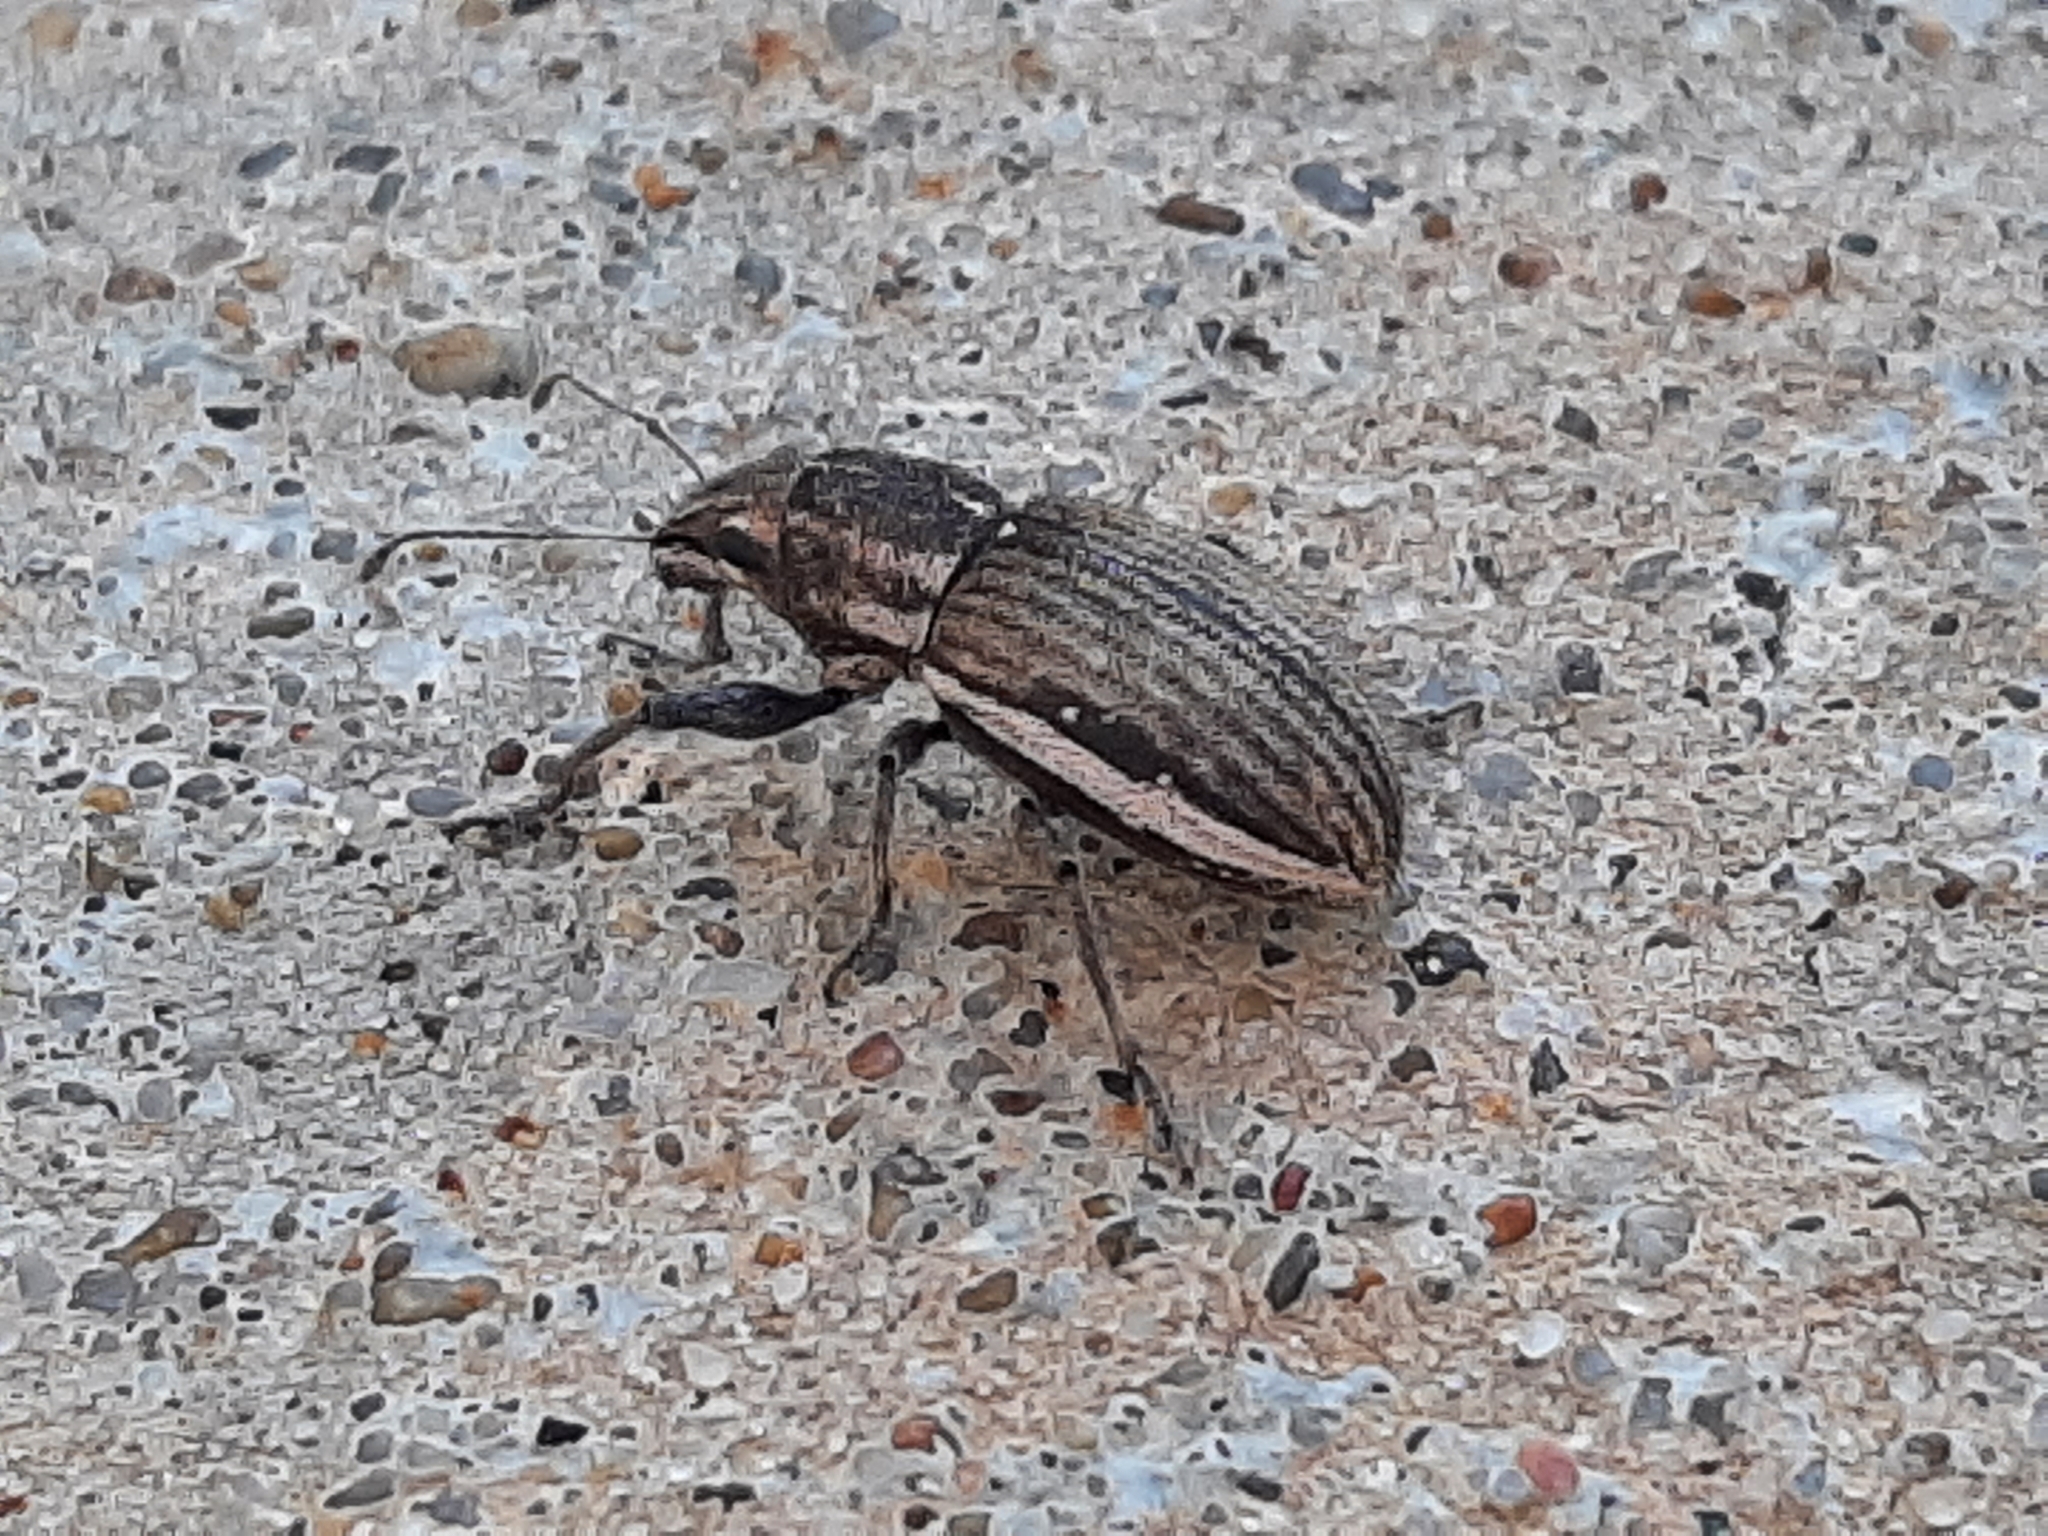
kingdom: Animalia
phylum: Arthropoda
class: Insecta
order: Coleoptera
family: Curculionidae
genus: Naupactus
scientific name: Naupactus leucoloma
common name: Whitefringed beetle
